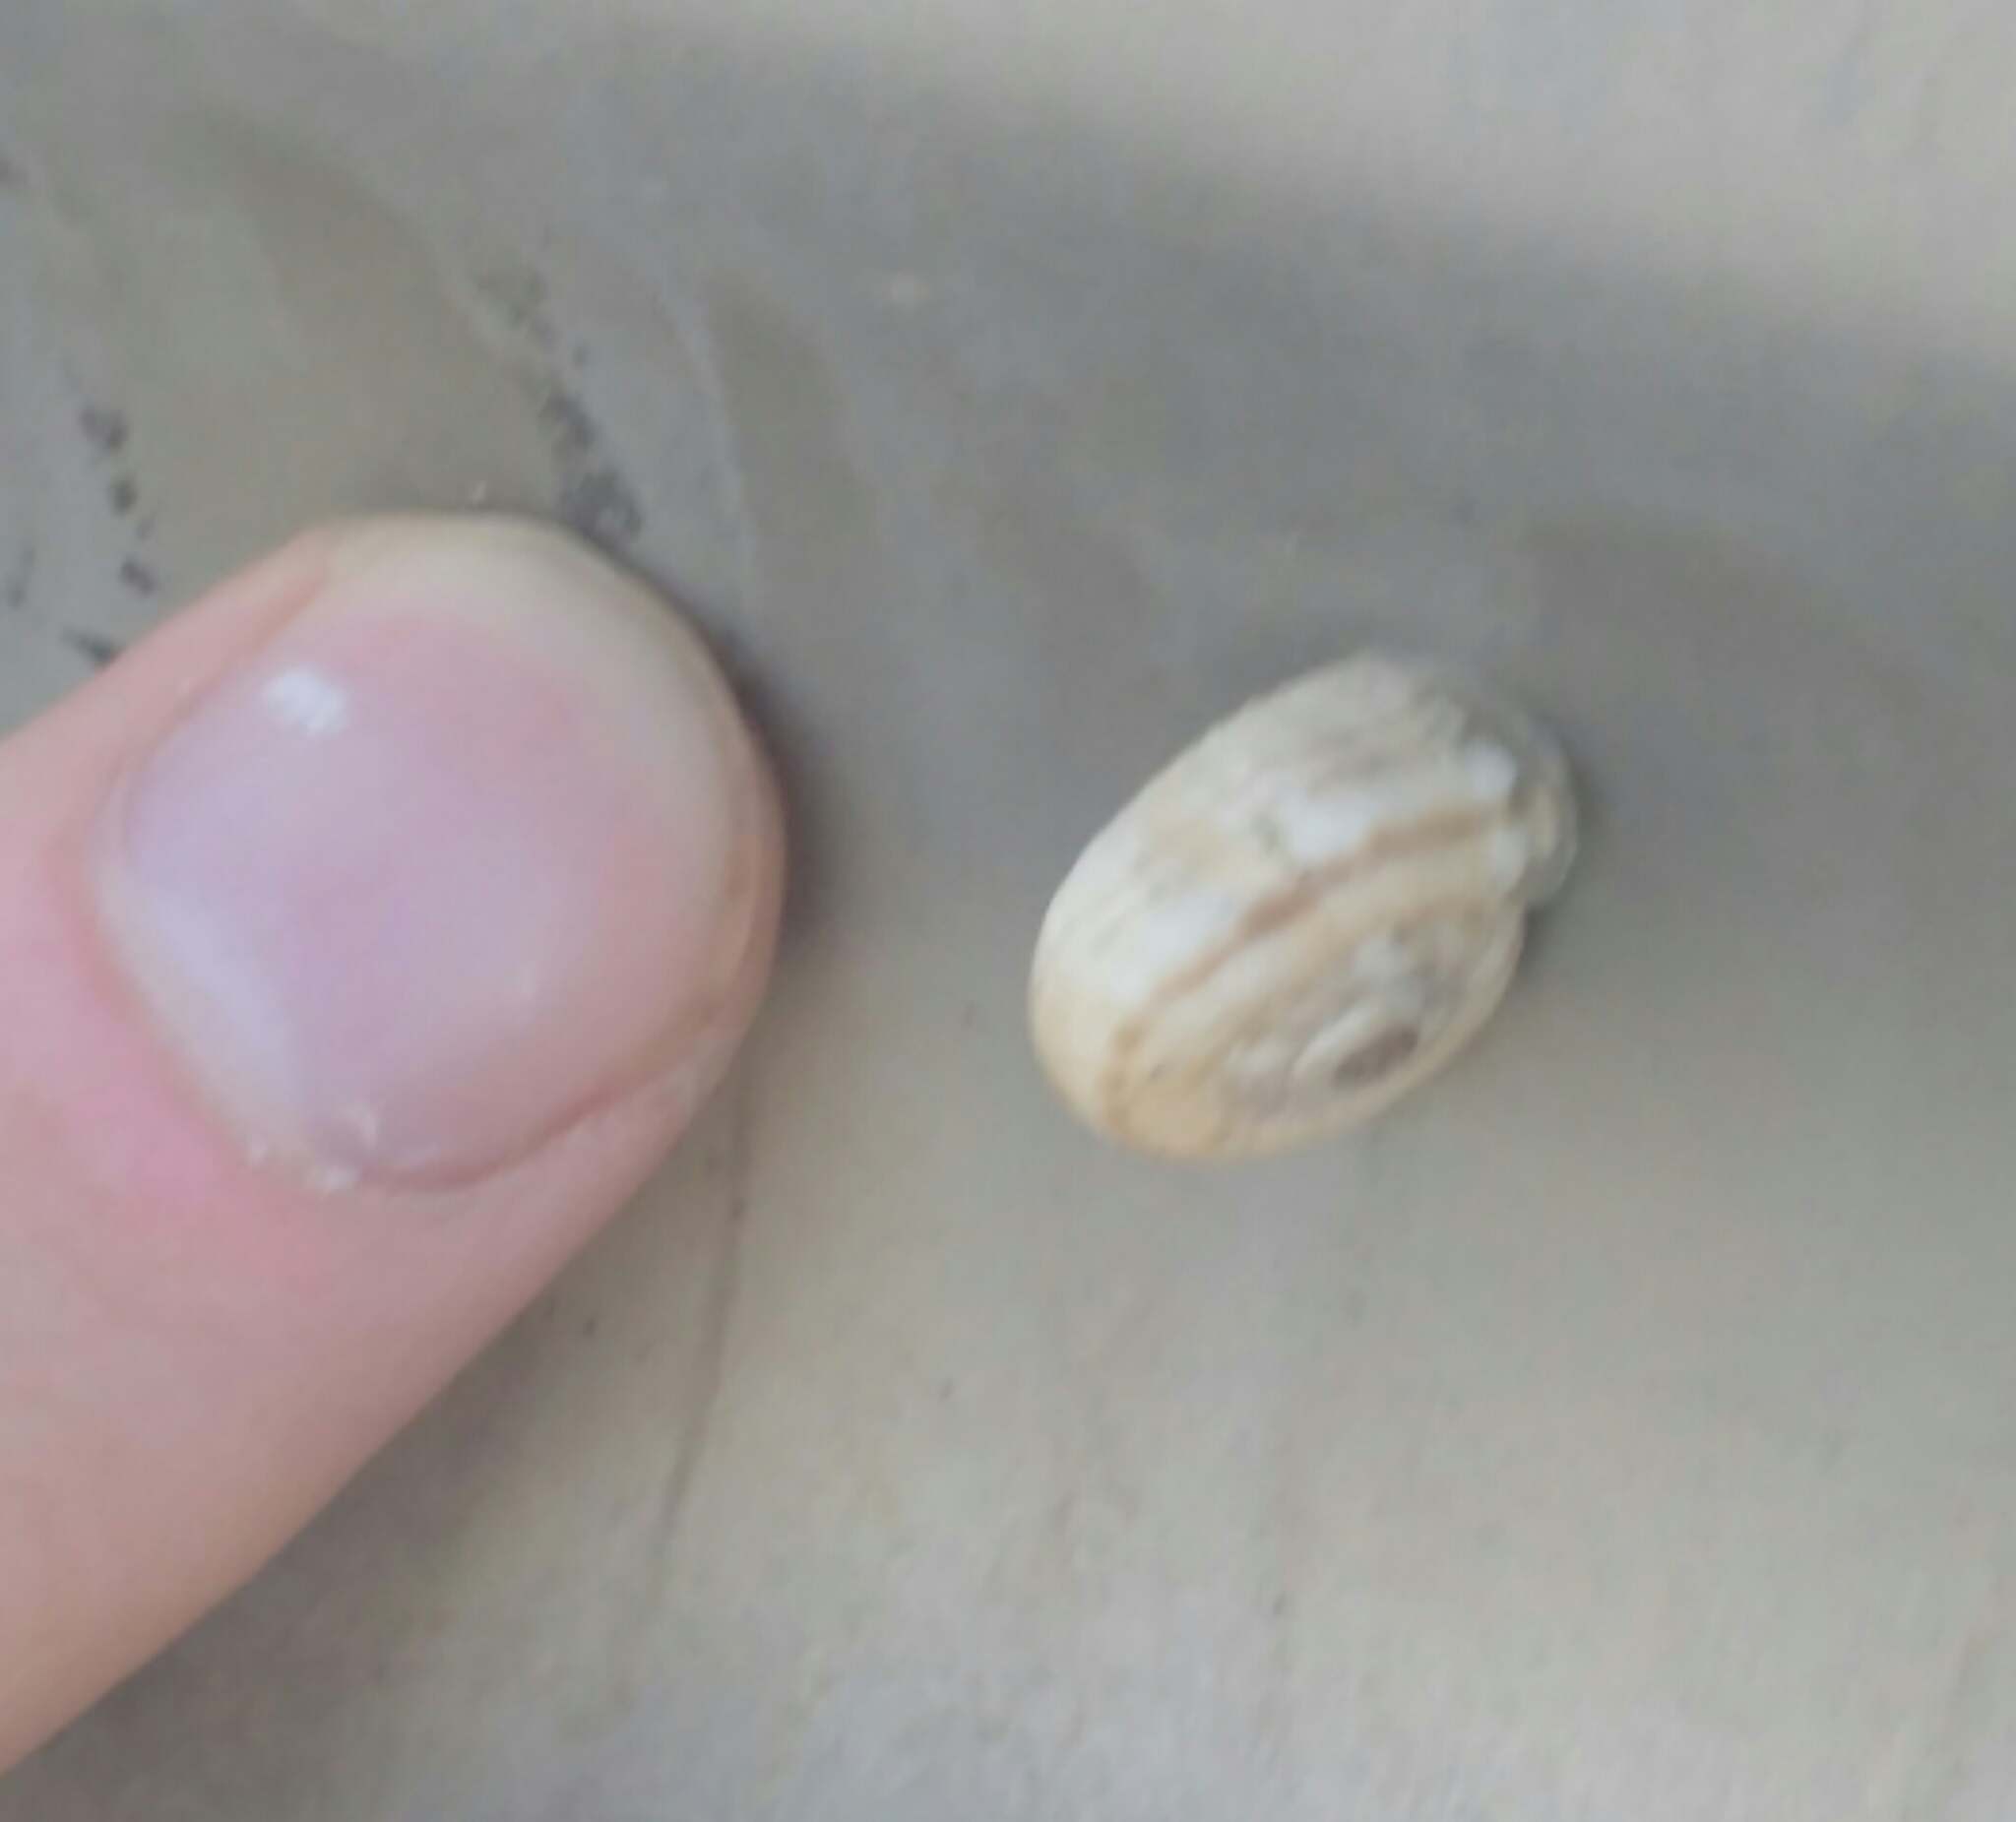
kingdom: Animalia
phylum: Mollusca
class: Gastropoda
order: Stylommatophora
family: Geomitridae
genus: Xerolenta
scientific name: Xerolenta obvia
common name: White heath snail
